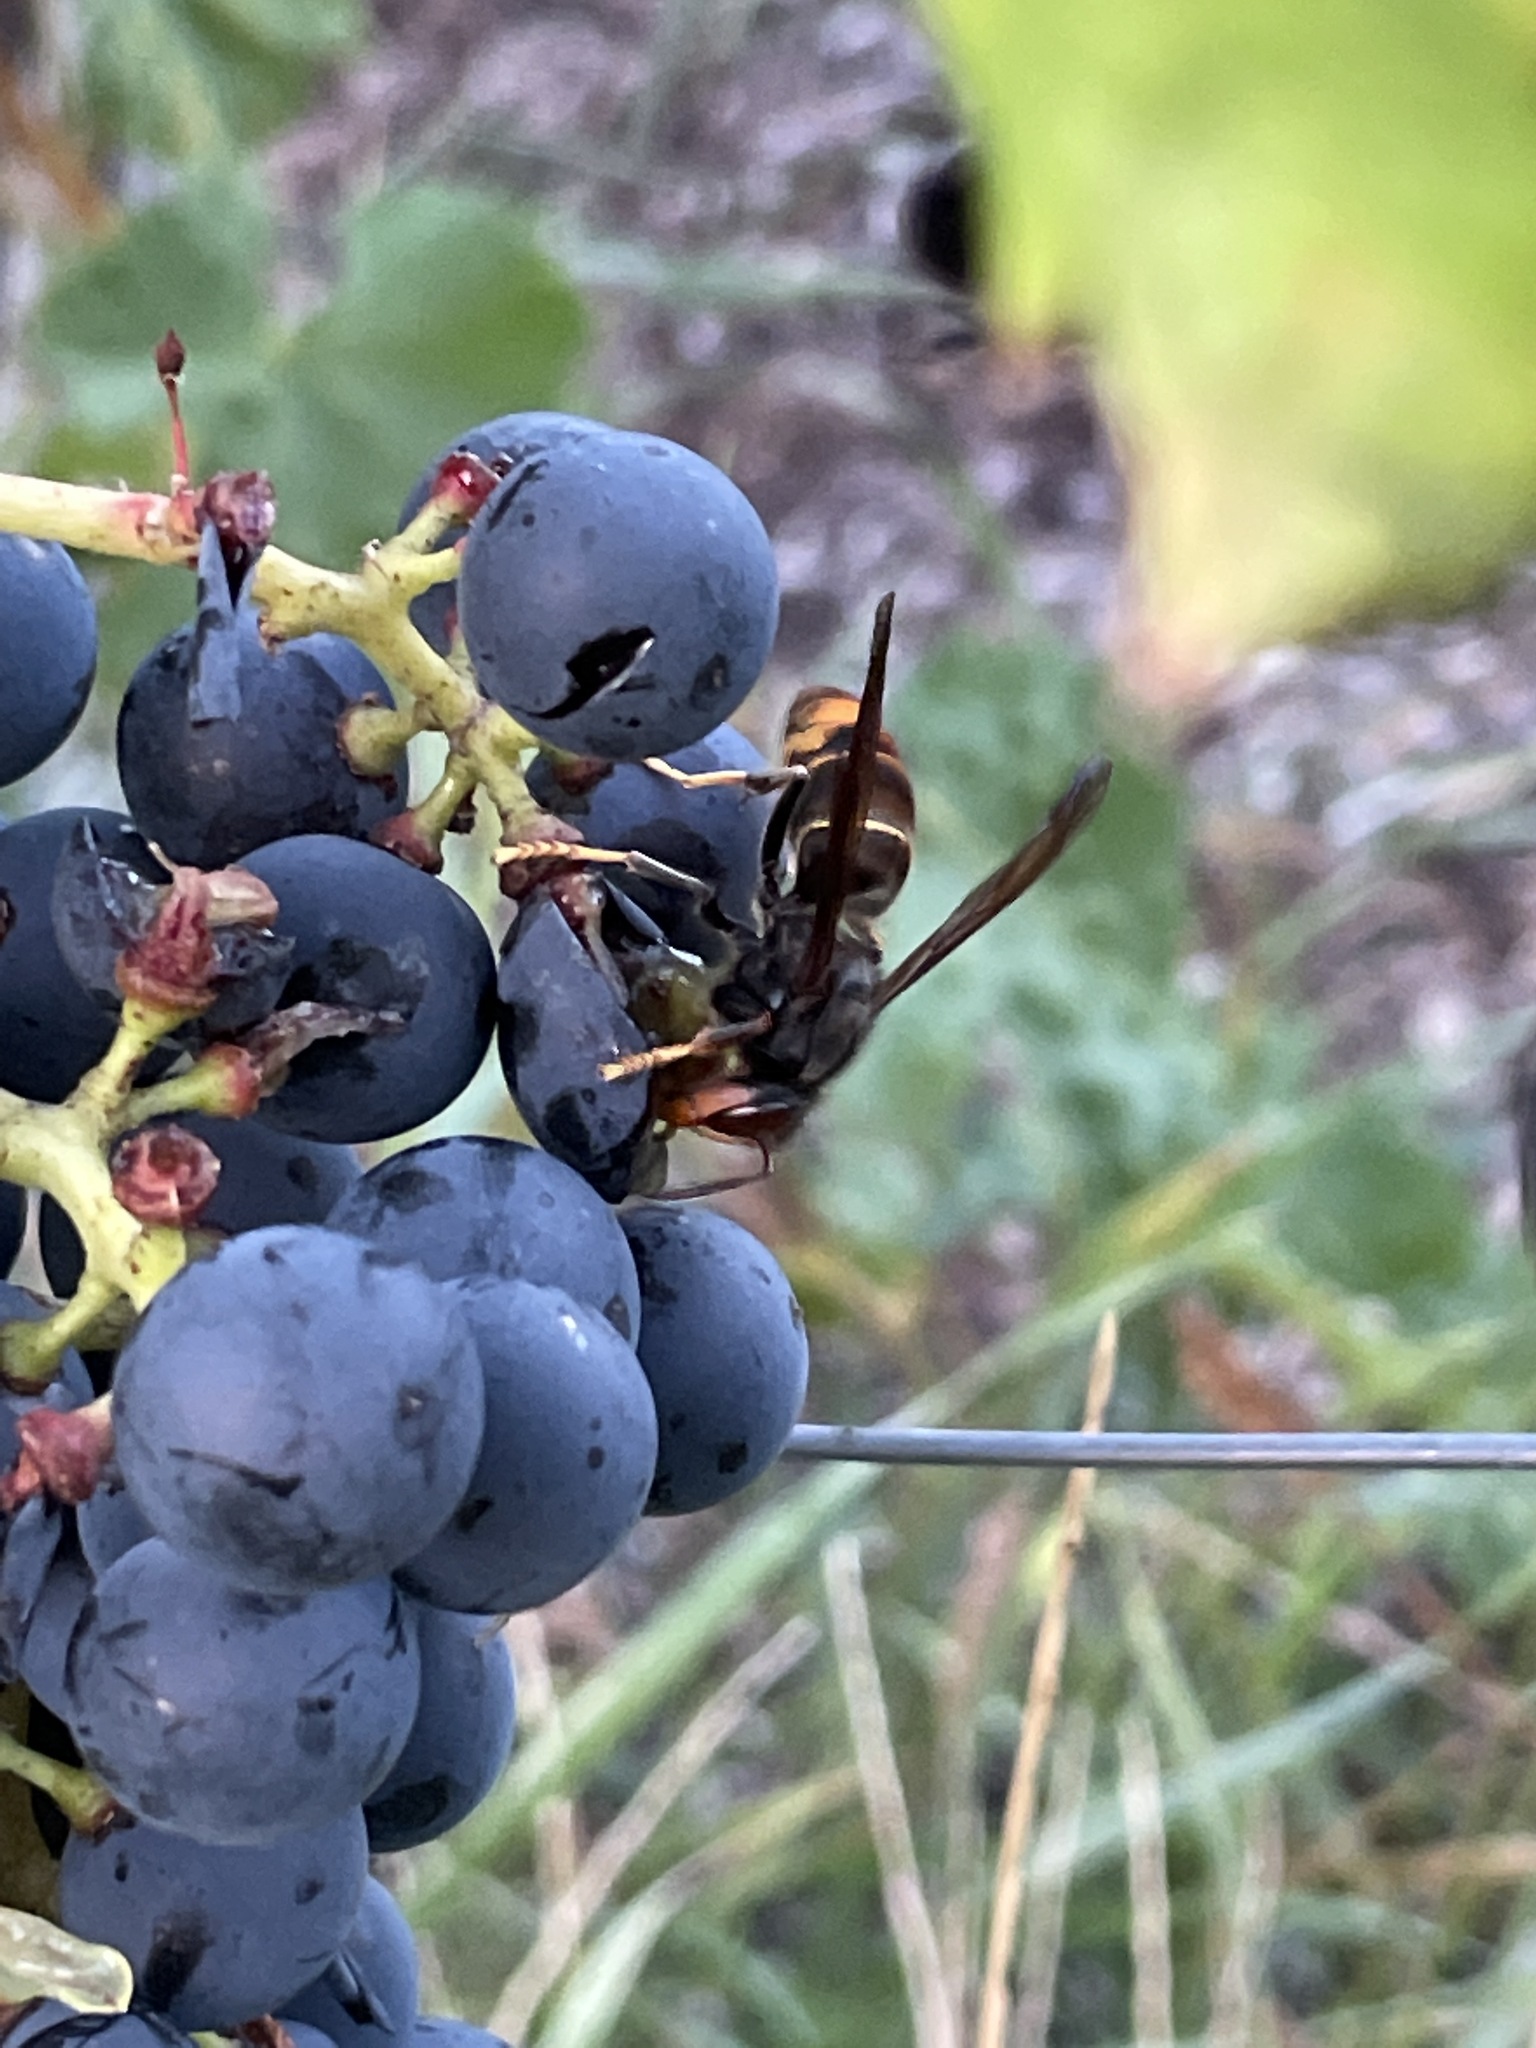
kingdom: Animalia
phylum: Arthropoda
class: Insecta
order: Hymenoptera
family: Vespidae
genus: Vespa
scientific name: Vespa velutina
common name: Asian hornet
